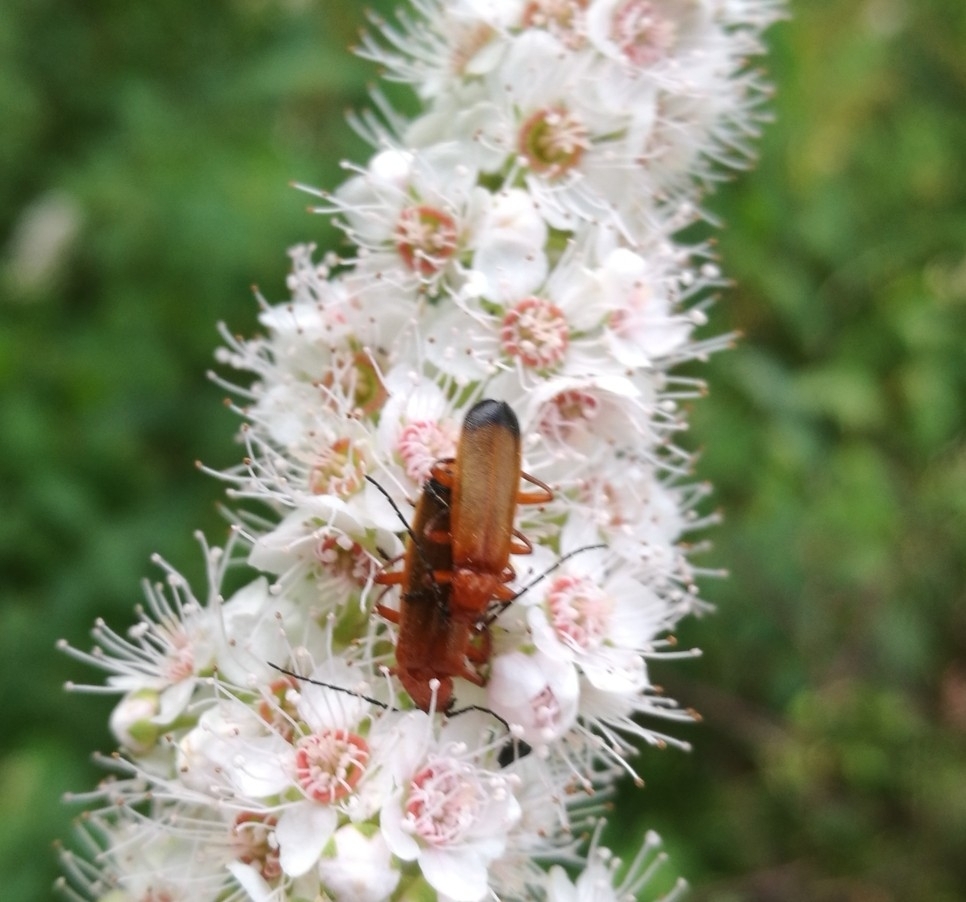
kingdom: Animalia
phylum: Arthropoda
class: Insecta
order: Coleoptera
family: Cantharidae
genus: Rhagonycha
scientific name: Rhagonycha fulva
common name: Common red soldier beetle
